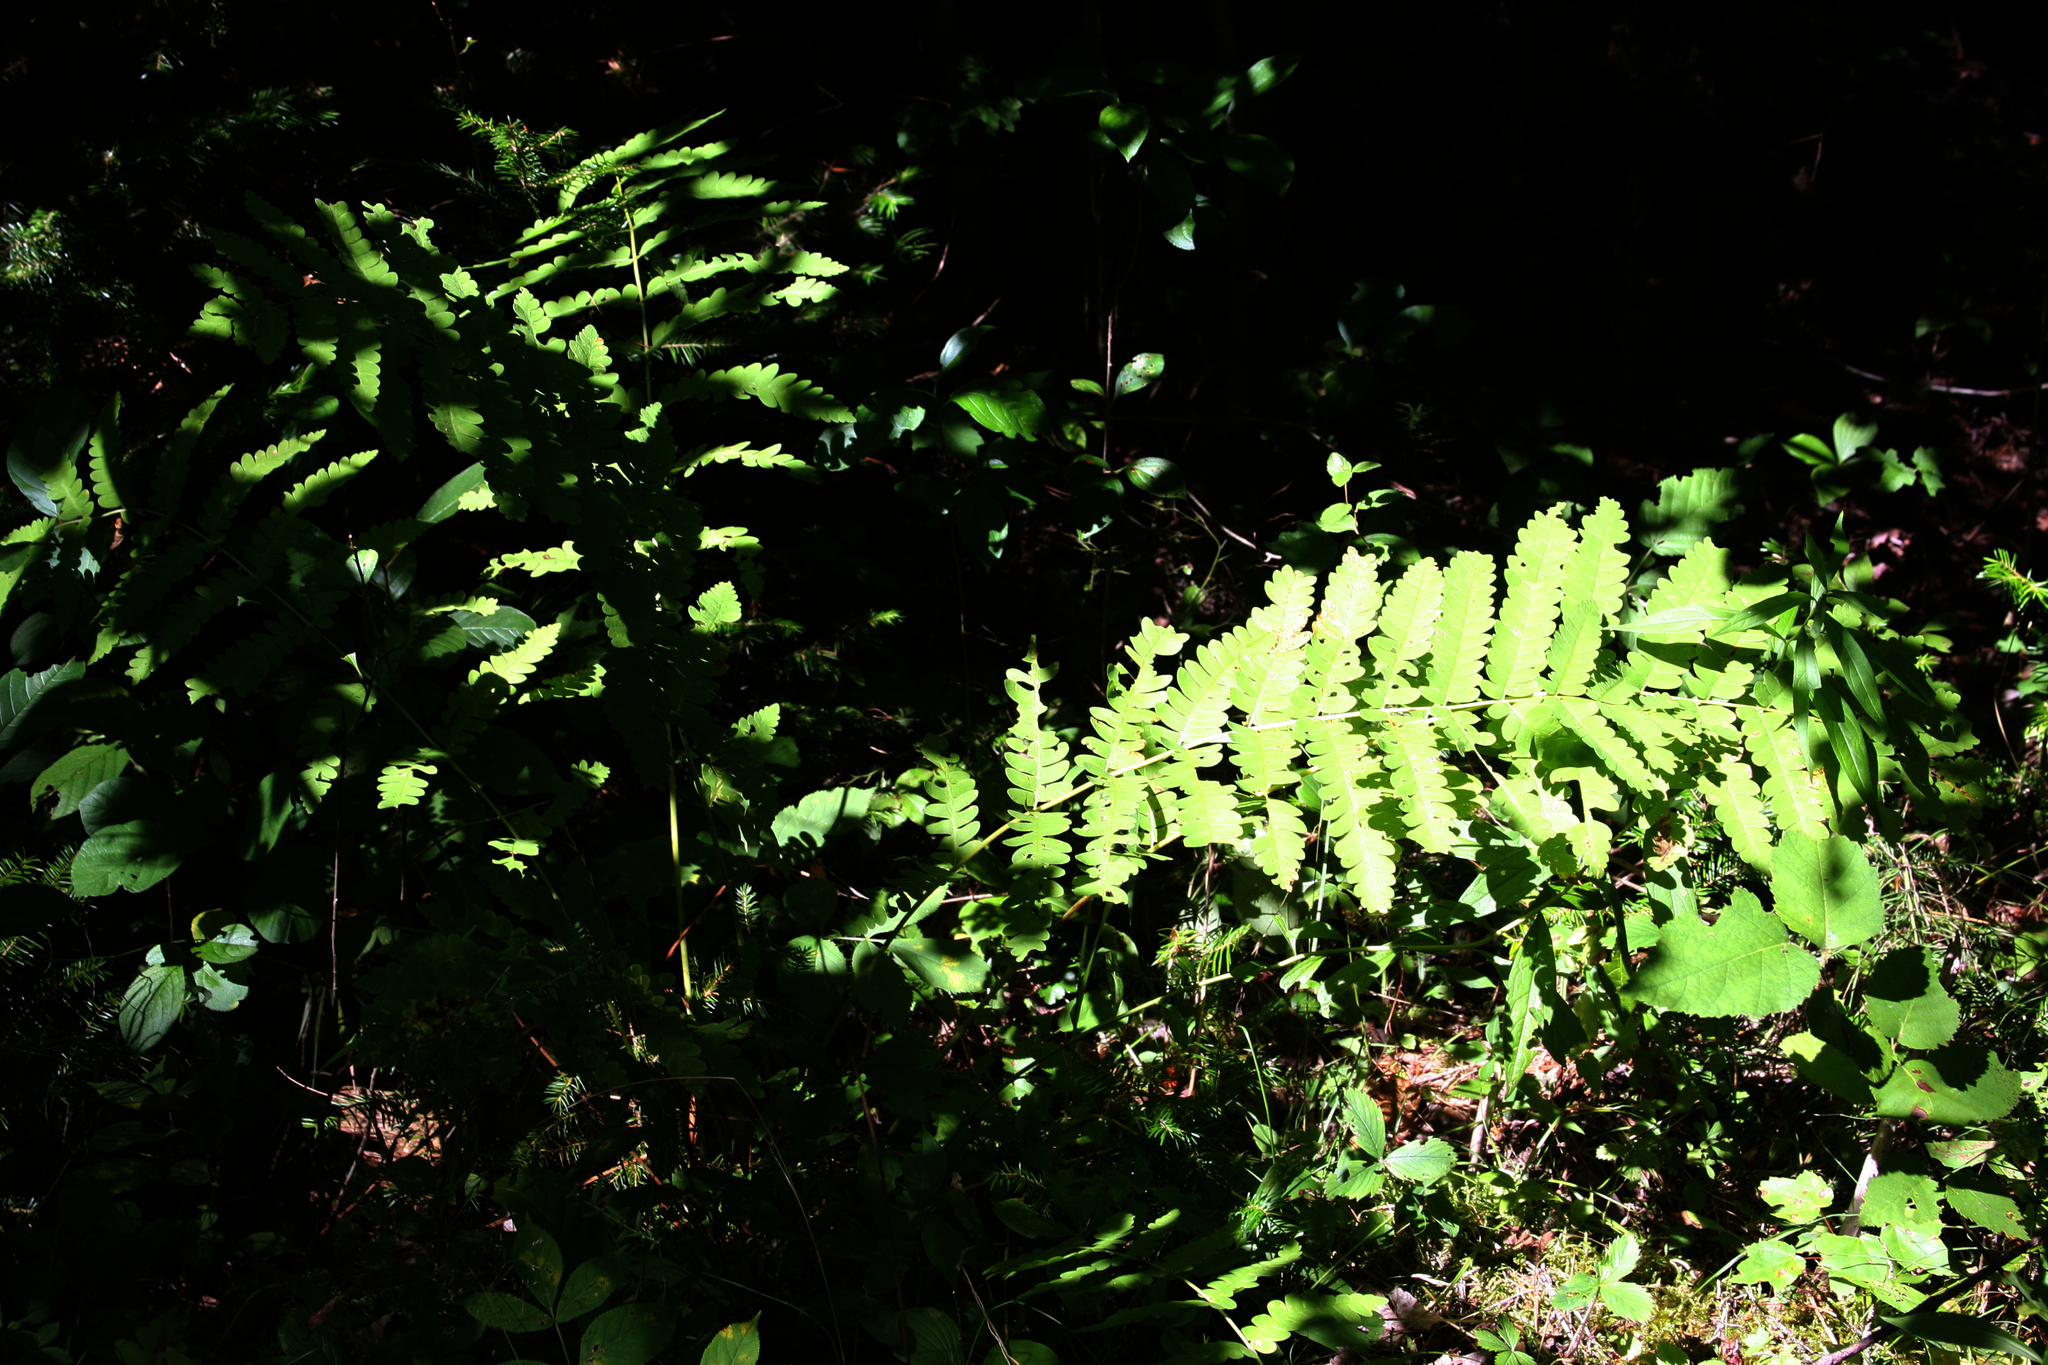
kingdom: Plantae
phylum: Tracheophyta
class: Polypodiopsida
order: Osmundales
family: Osmundaceae
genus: Claytosmunda
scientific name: Claytosmunda claytoniana
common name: Clayton's fern
